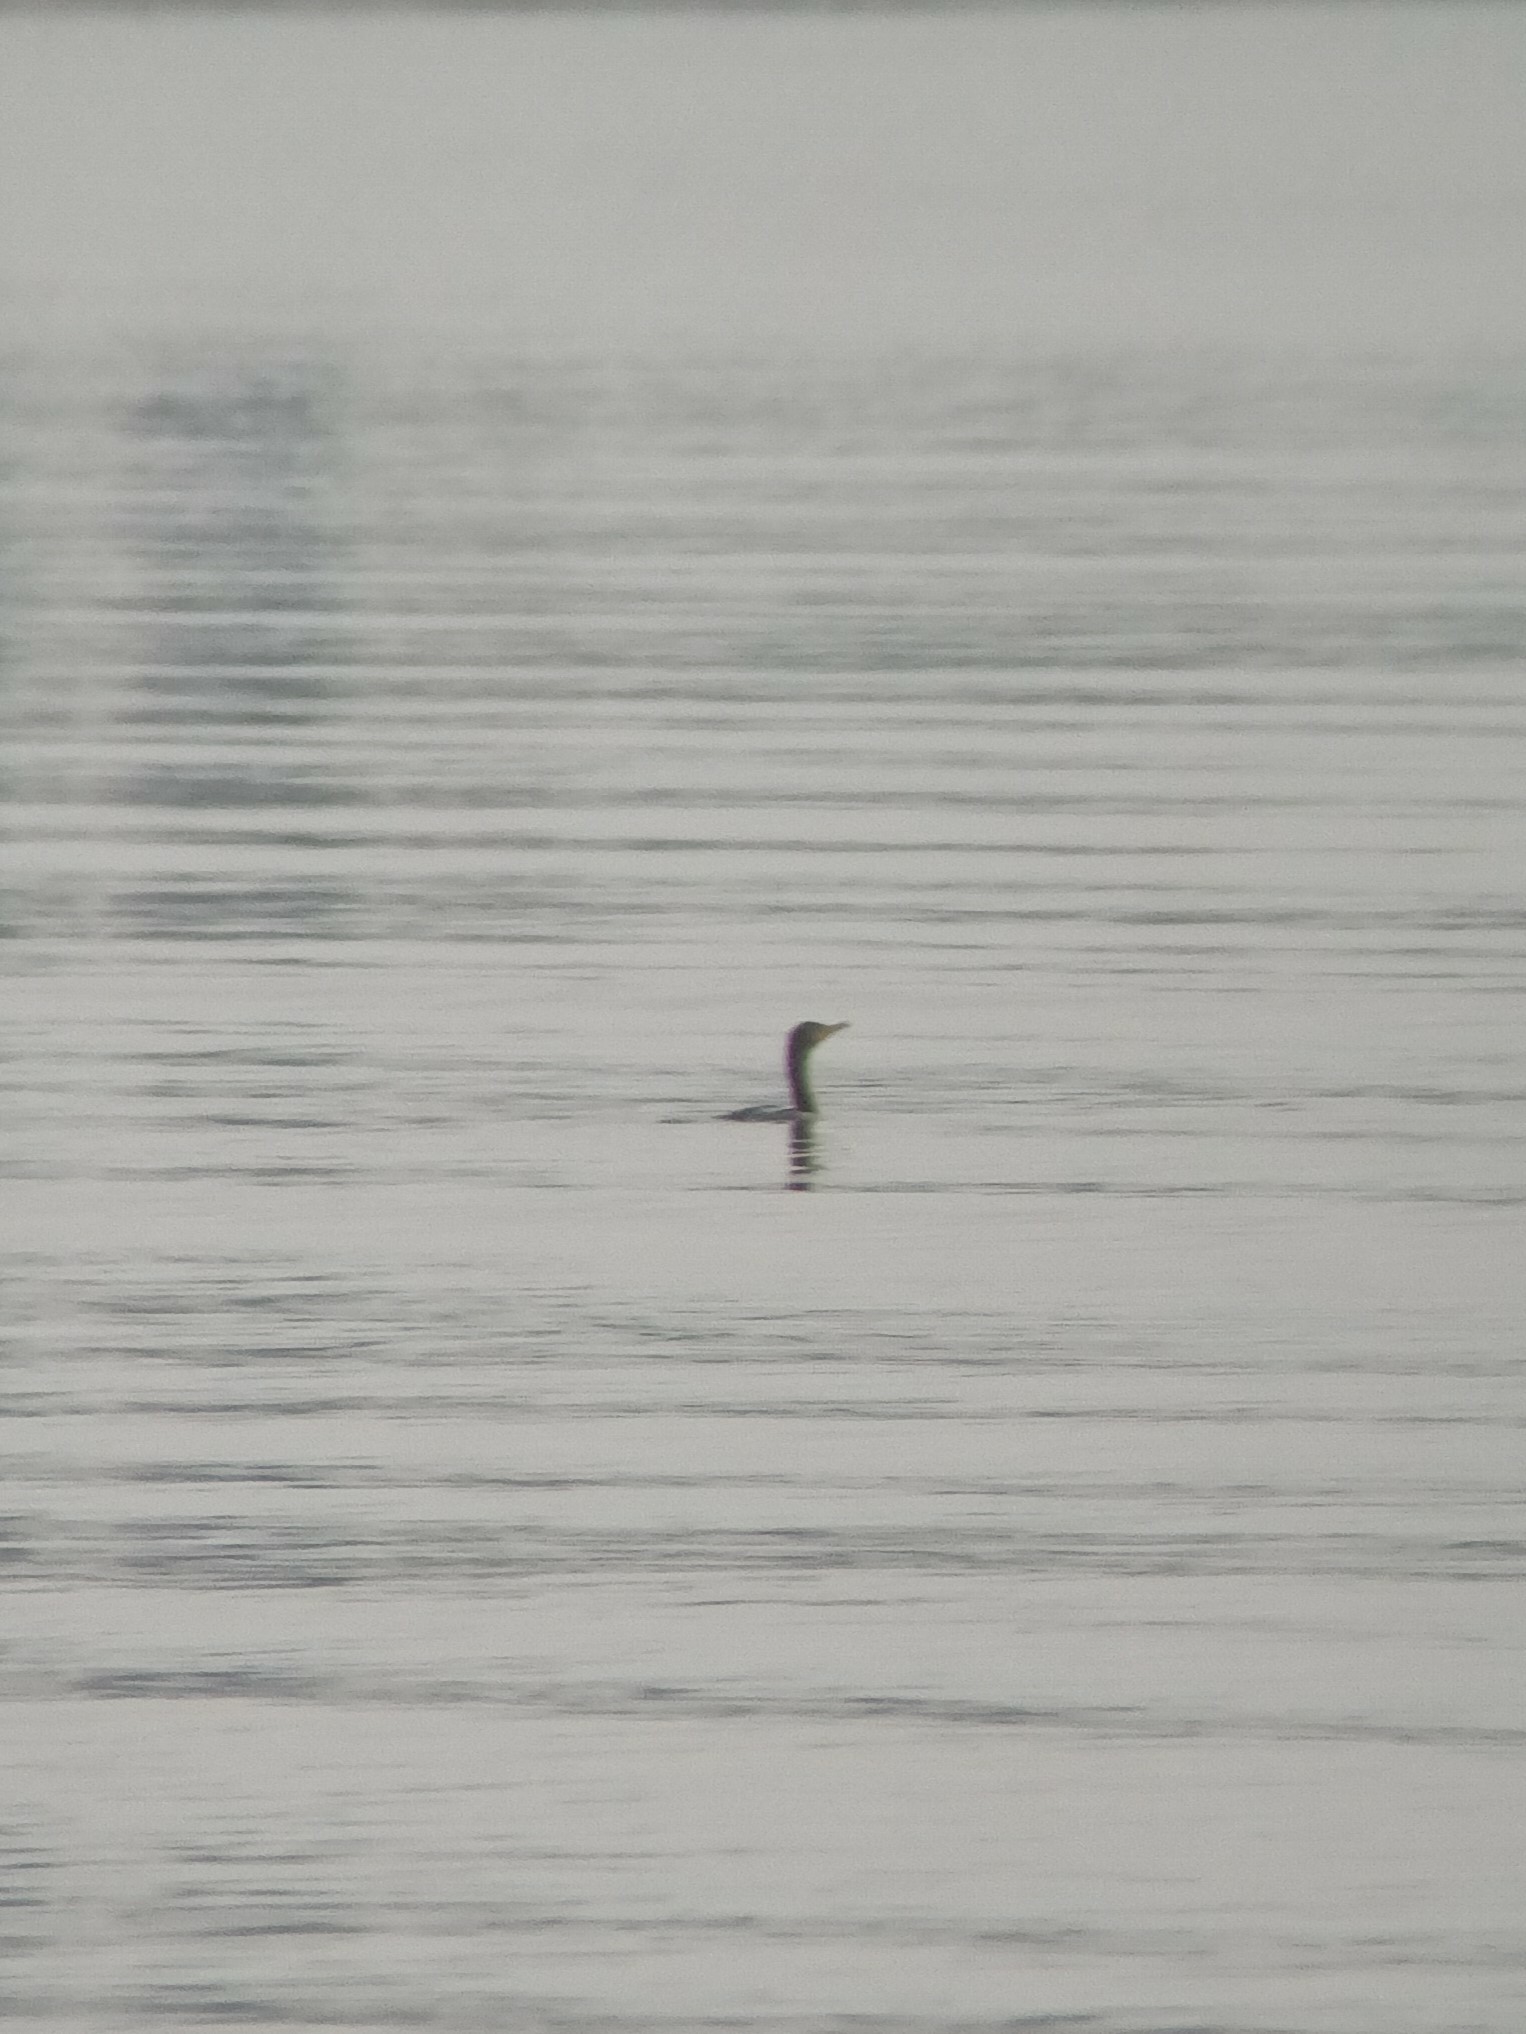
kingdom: Animalia
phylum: Chordata
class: Aves
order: Suliformes
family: Phalacrocoracidae
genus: Phalacrocorax
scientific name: Phalacrocorax auritus
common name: Double-crested cormorant
